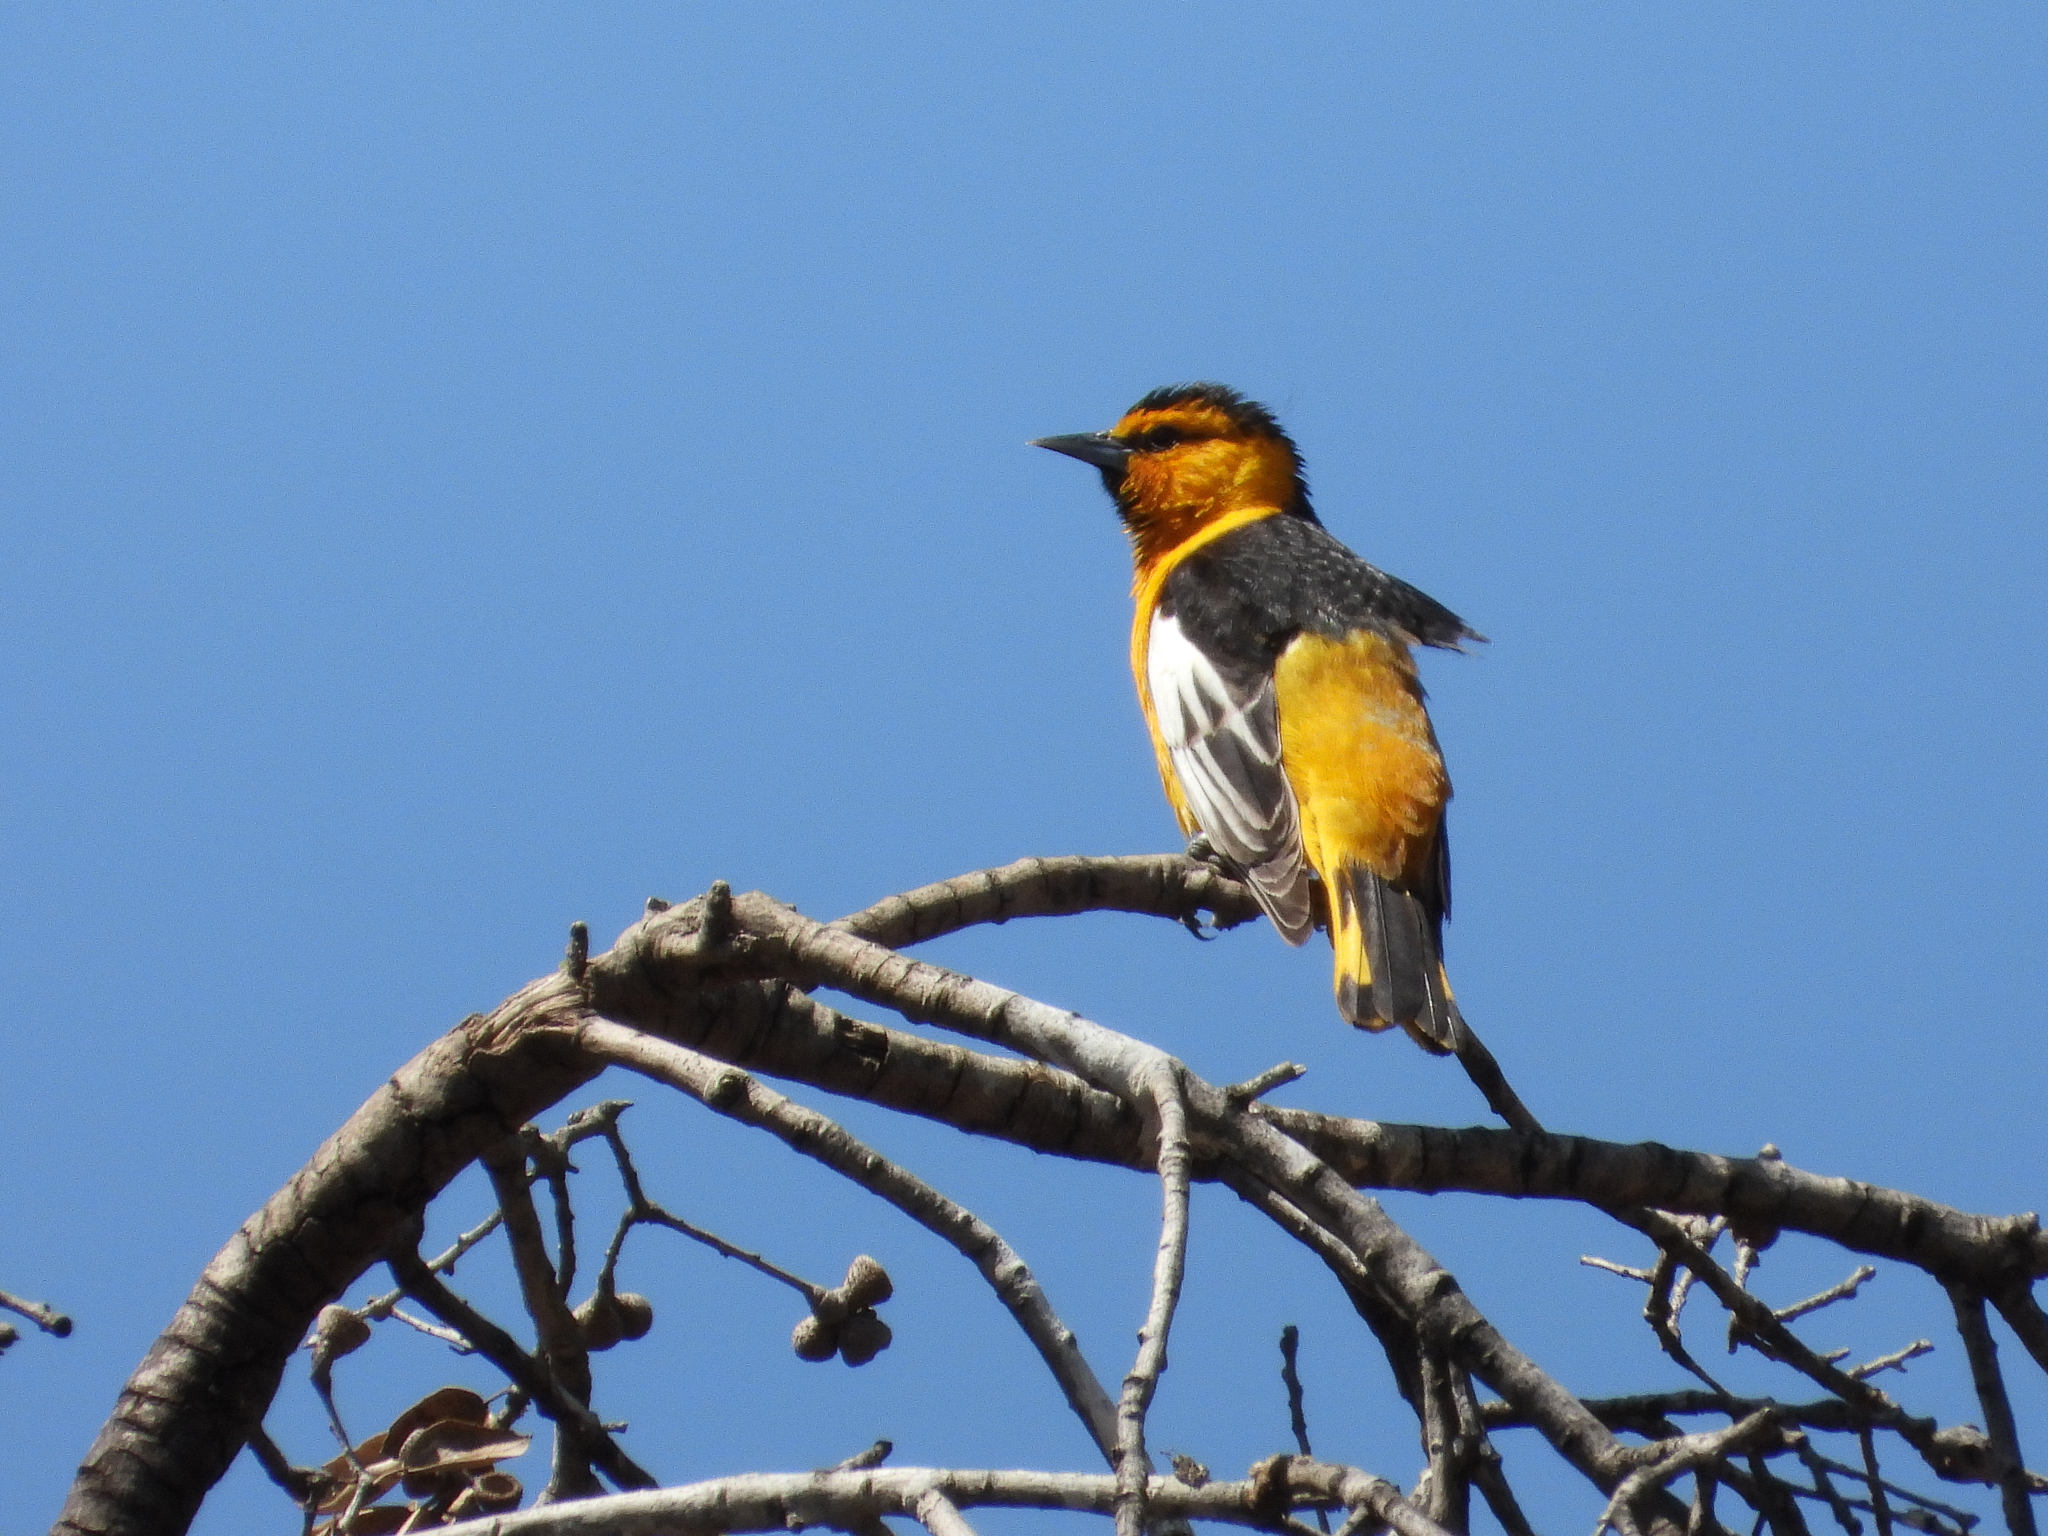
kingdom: Animalia
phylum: Chordata
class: Aves
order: Passeriformes
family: Icteridae
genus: Icterus
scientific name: Icterus bullockii
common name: Bullock's oriole
